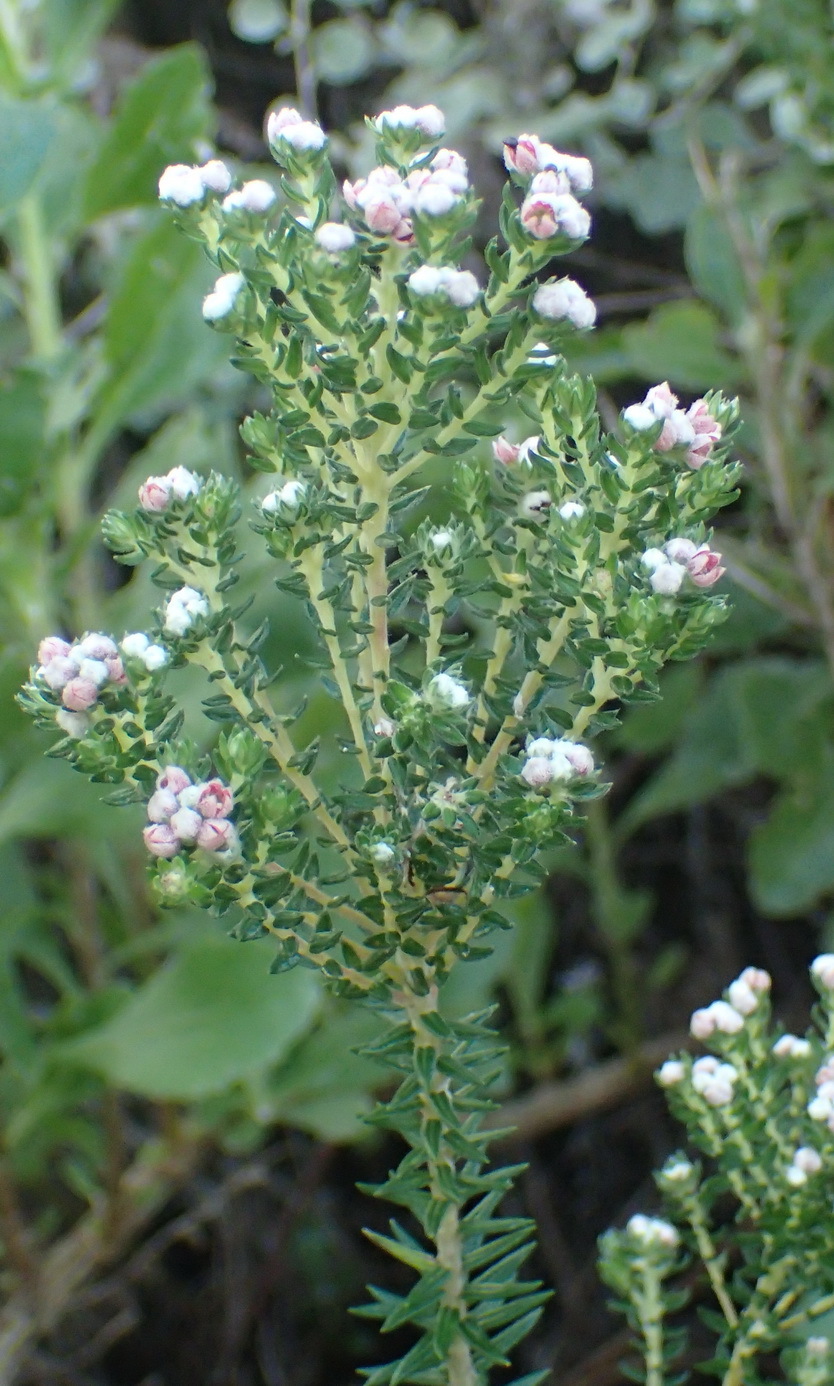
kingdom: Plantae
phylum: Tracheophyta
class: Magnoliopsida
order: Rosales
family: Rhamnaceae
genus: Phylica
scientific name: Phylica purpurea
